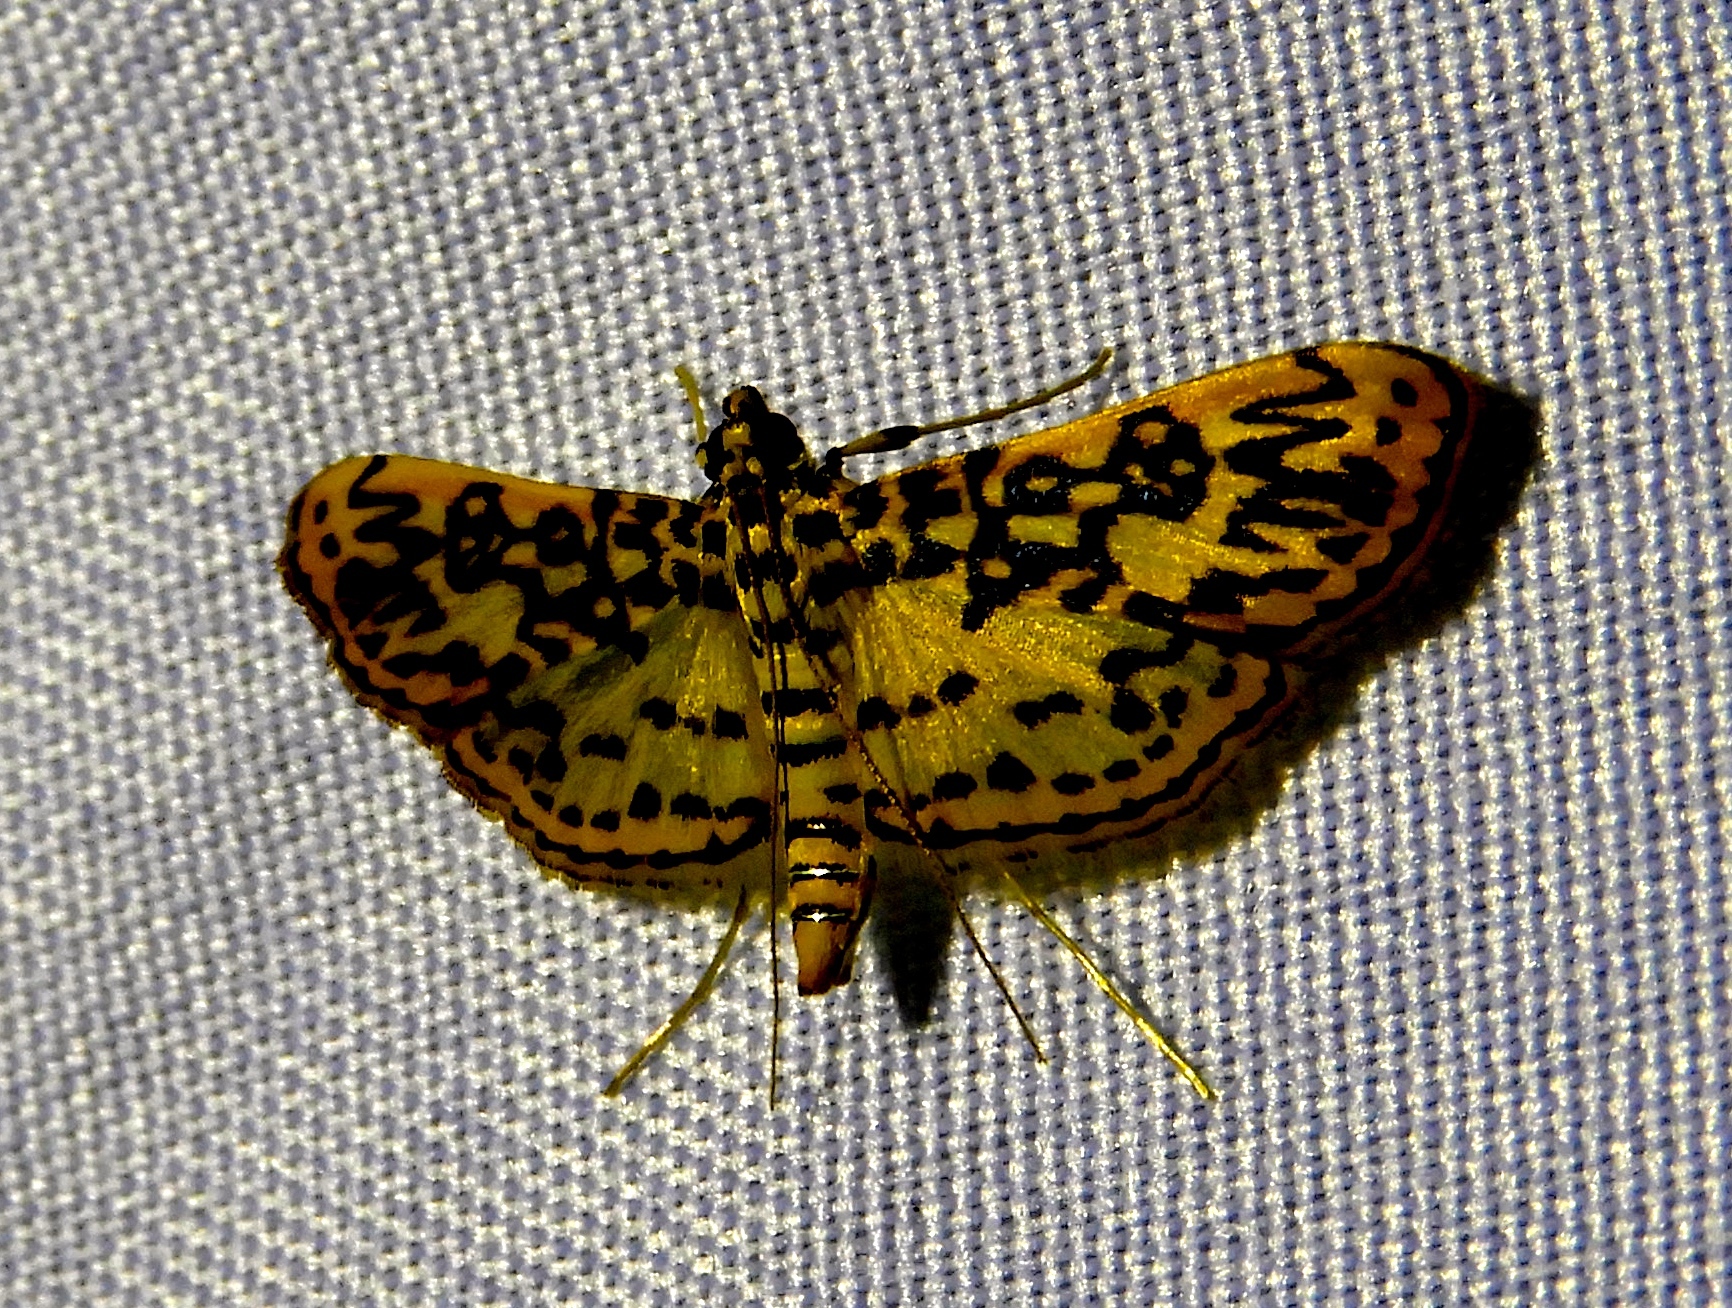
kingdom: Animalia
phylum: Arthropoda
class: Insecta
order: Lepidoptera
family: Crambidae
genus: Asturodes
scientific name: Asturodes fimbriauralis
